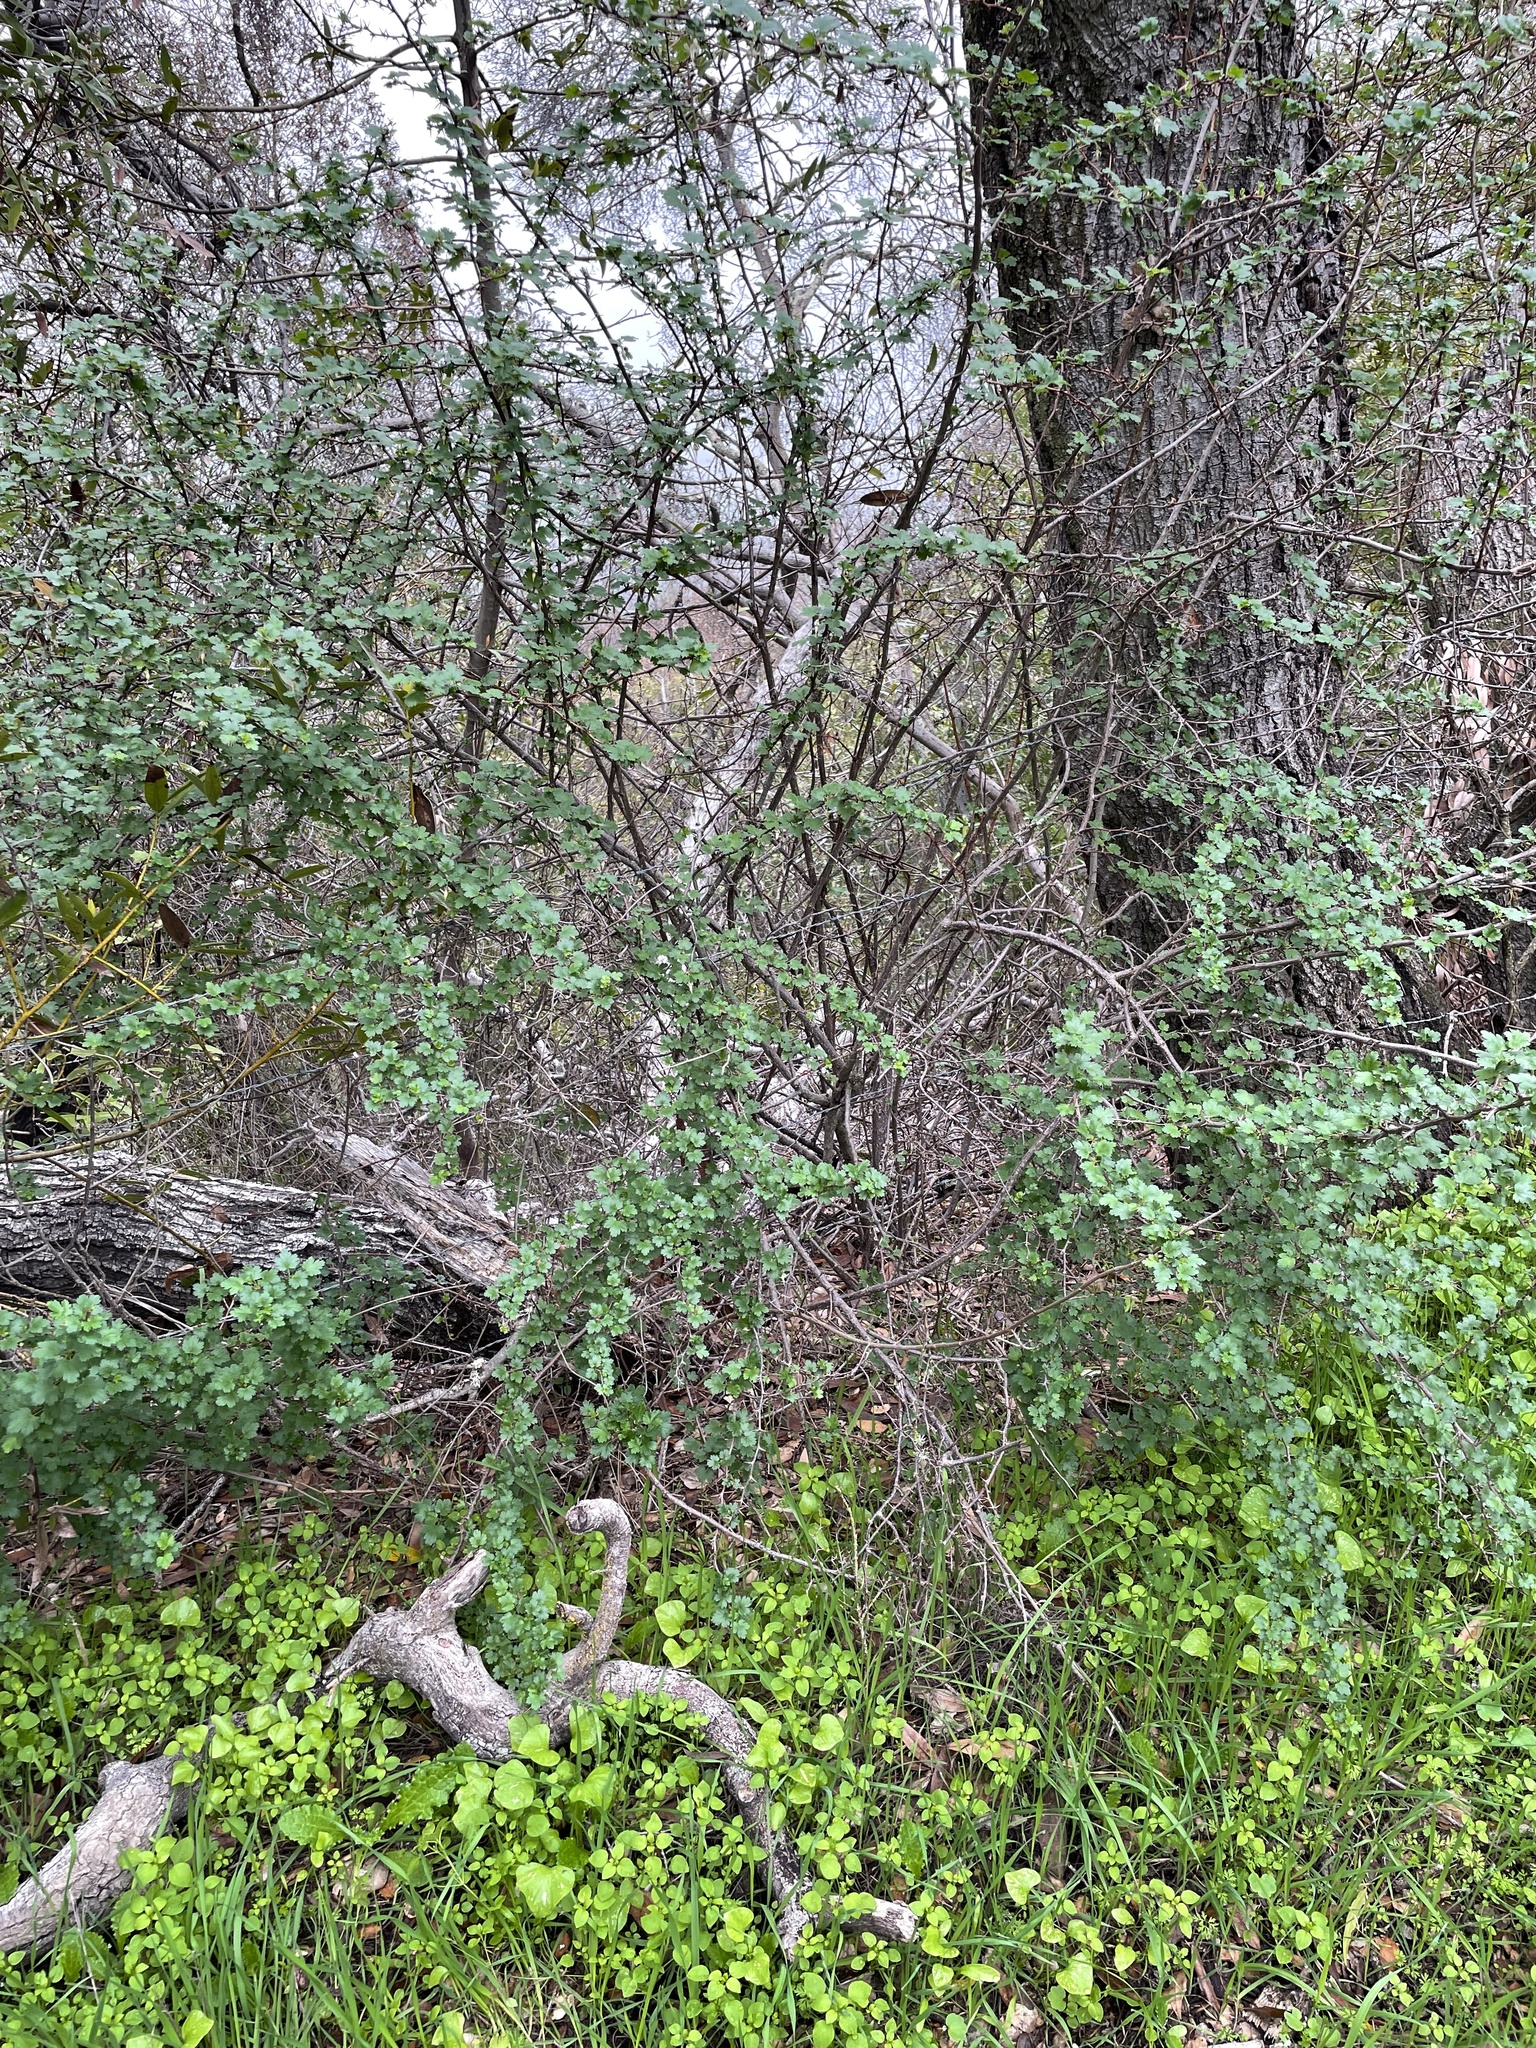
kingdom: Plantae
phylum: Tracheophyta
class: Magnoliopsida
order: Saxifragales
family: Grossulariaceae
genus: Ribes
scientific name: Ribes californicum
